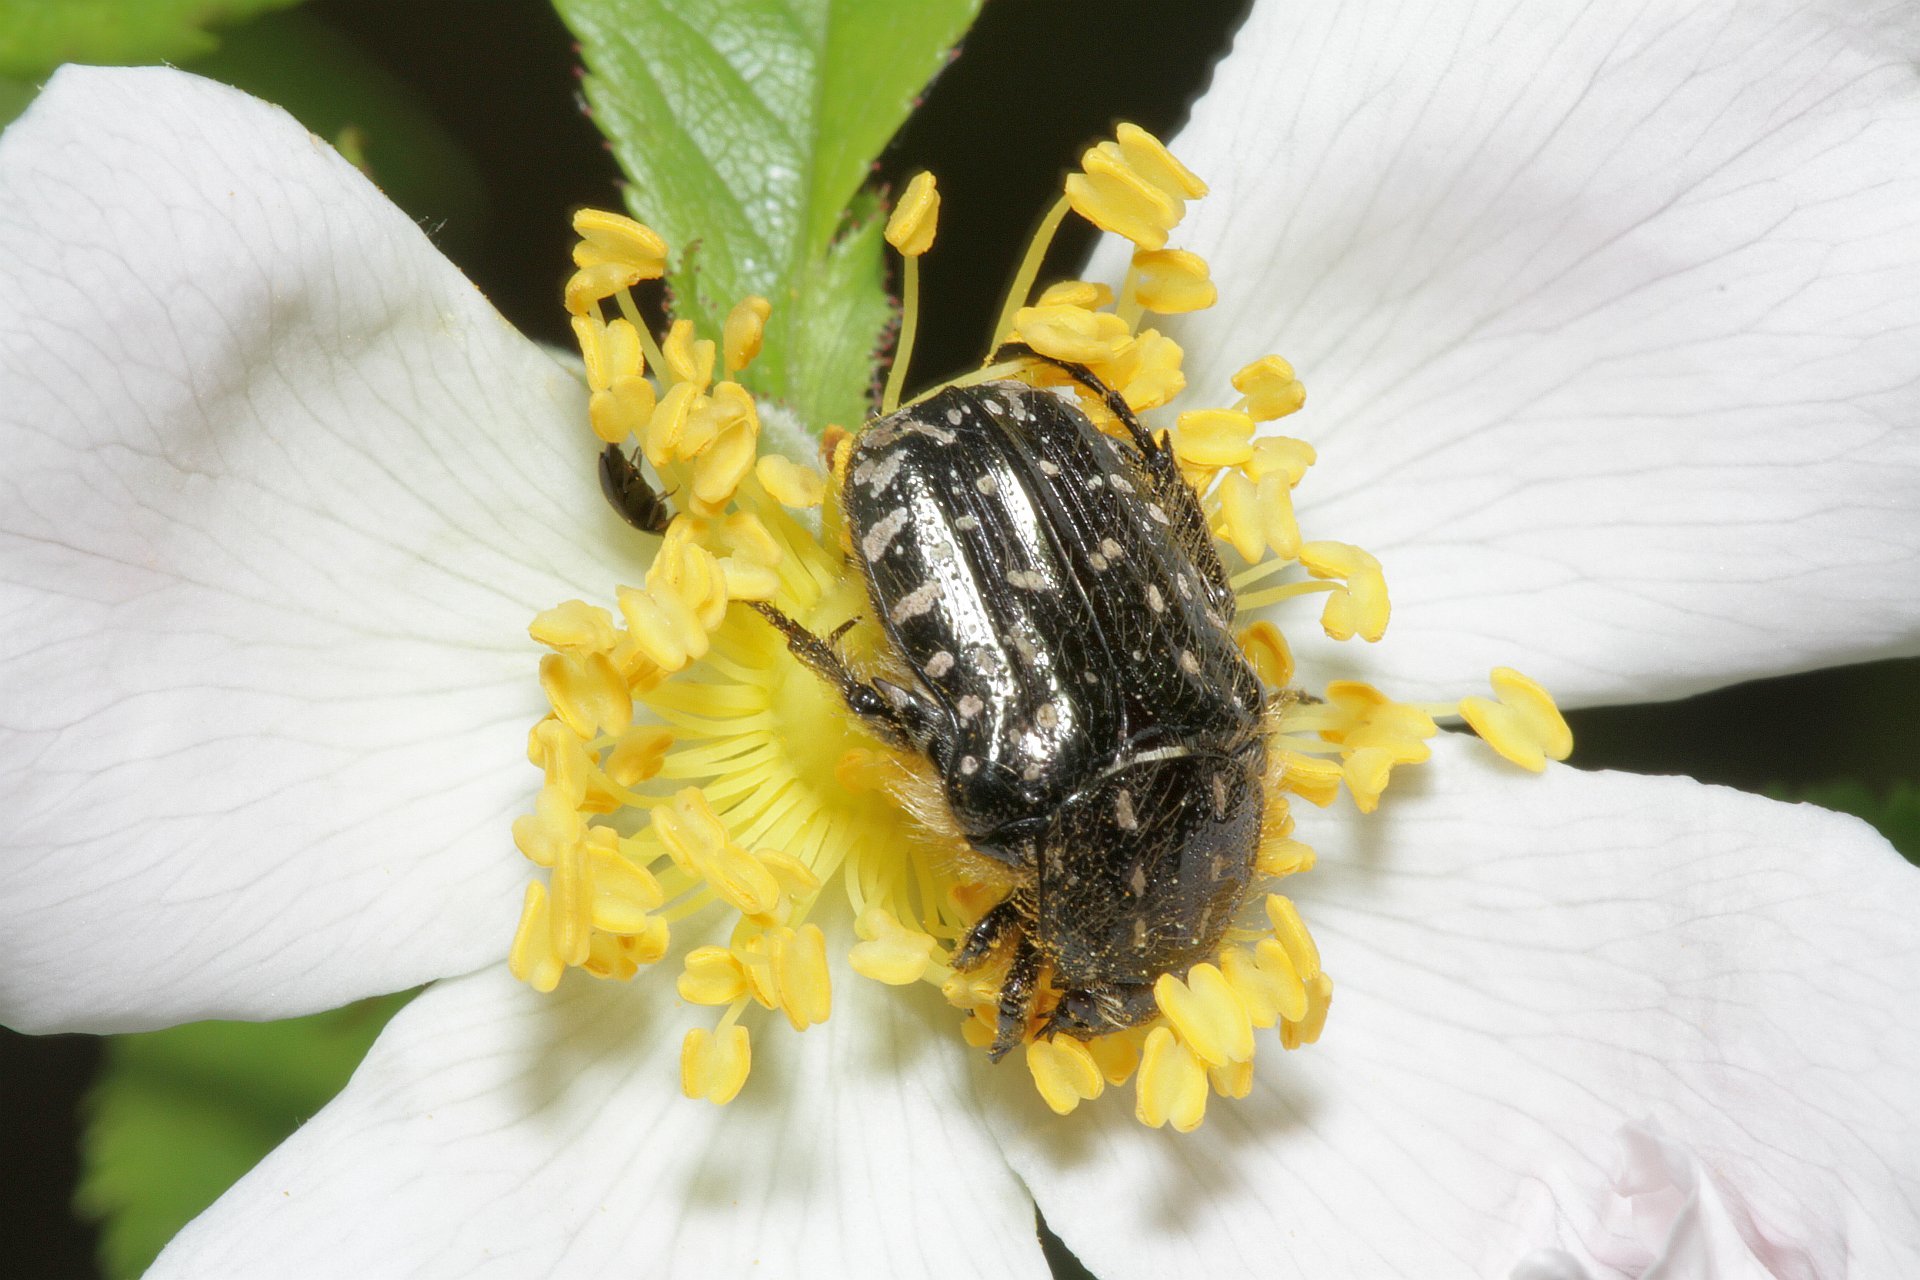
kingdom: Animalia
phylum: Arthropoda
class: Insecta
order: Coleoptera
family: Scarabaeidae
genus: Oxythyrea
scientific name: Oxythyrea funesta
